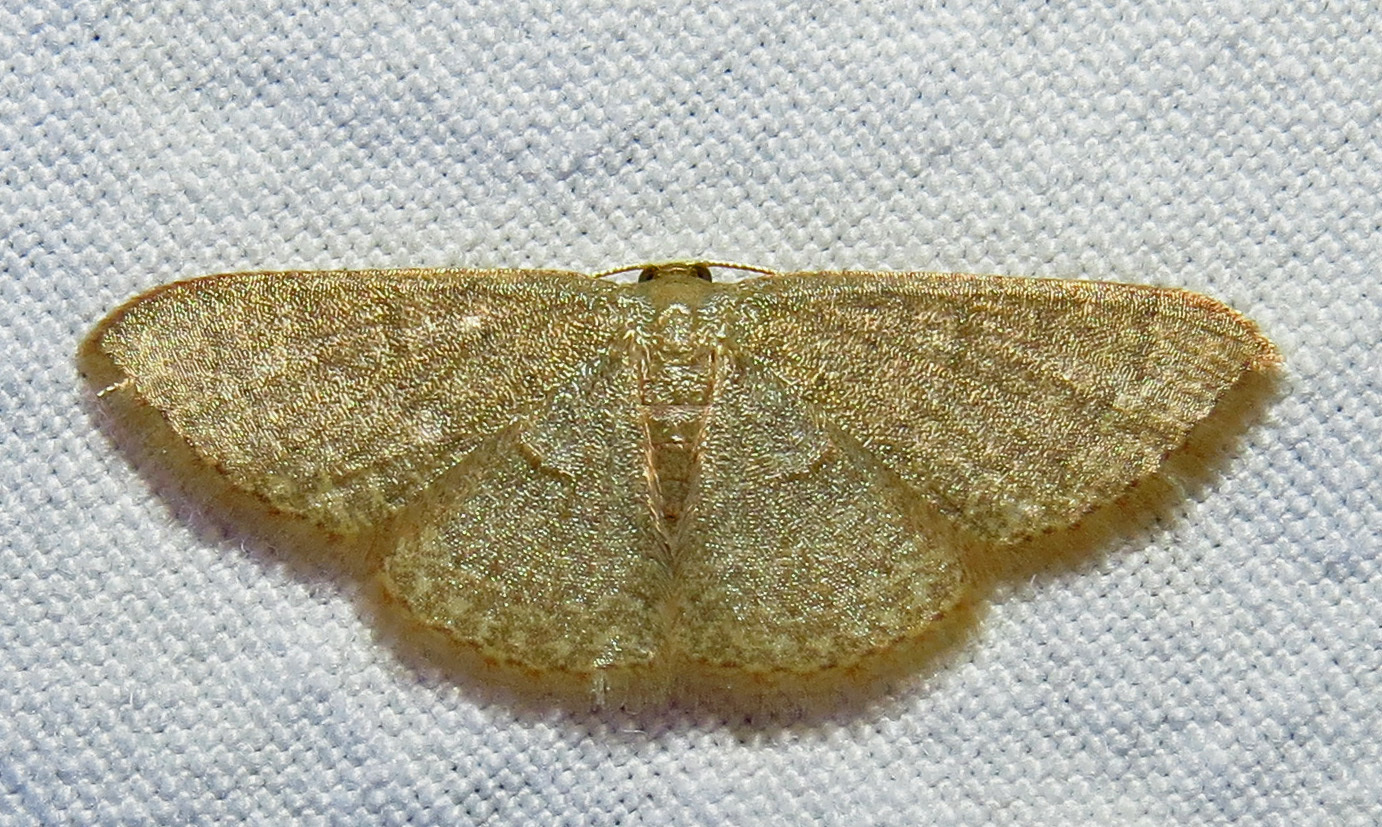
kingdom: Animalia
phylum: Arthropoda
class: Insecta
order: Lepidoptera
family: Geometridae
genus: Pleuroprucha
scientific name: Pleuroprucha insulsaria
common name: Common tan wave
